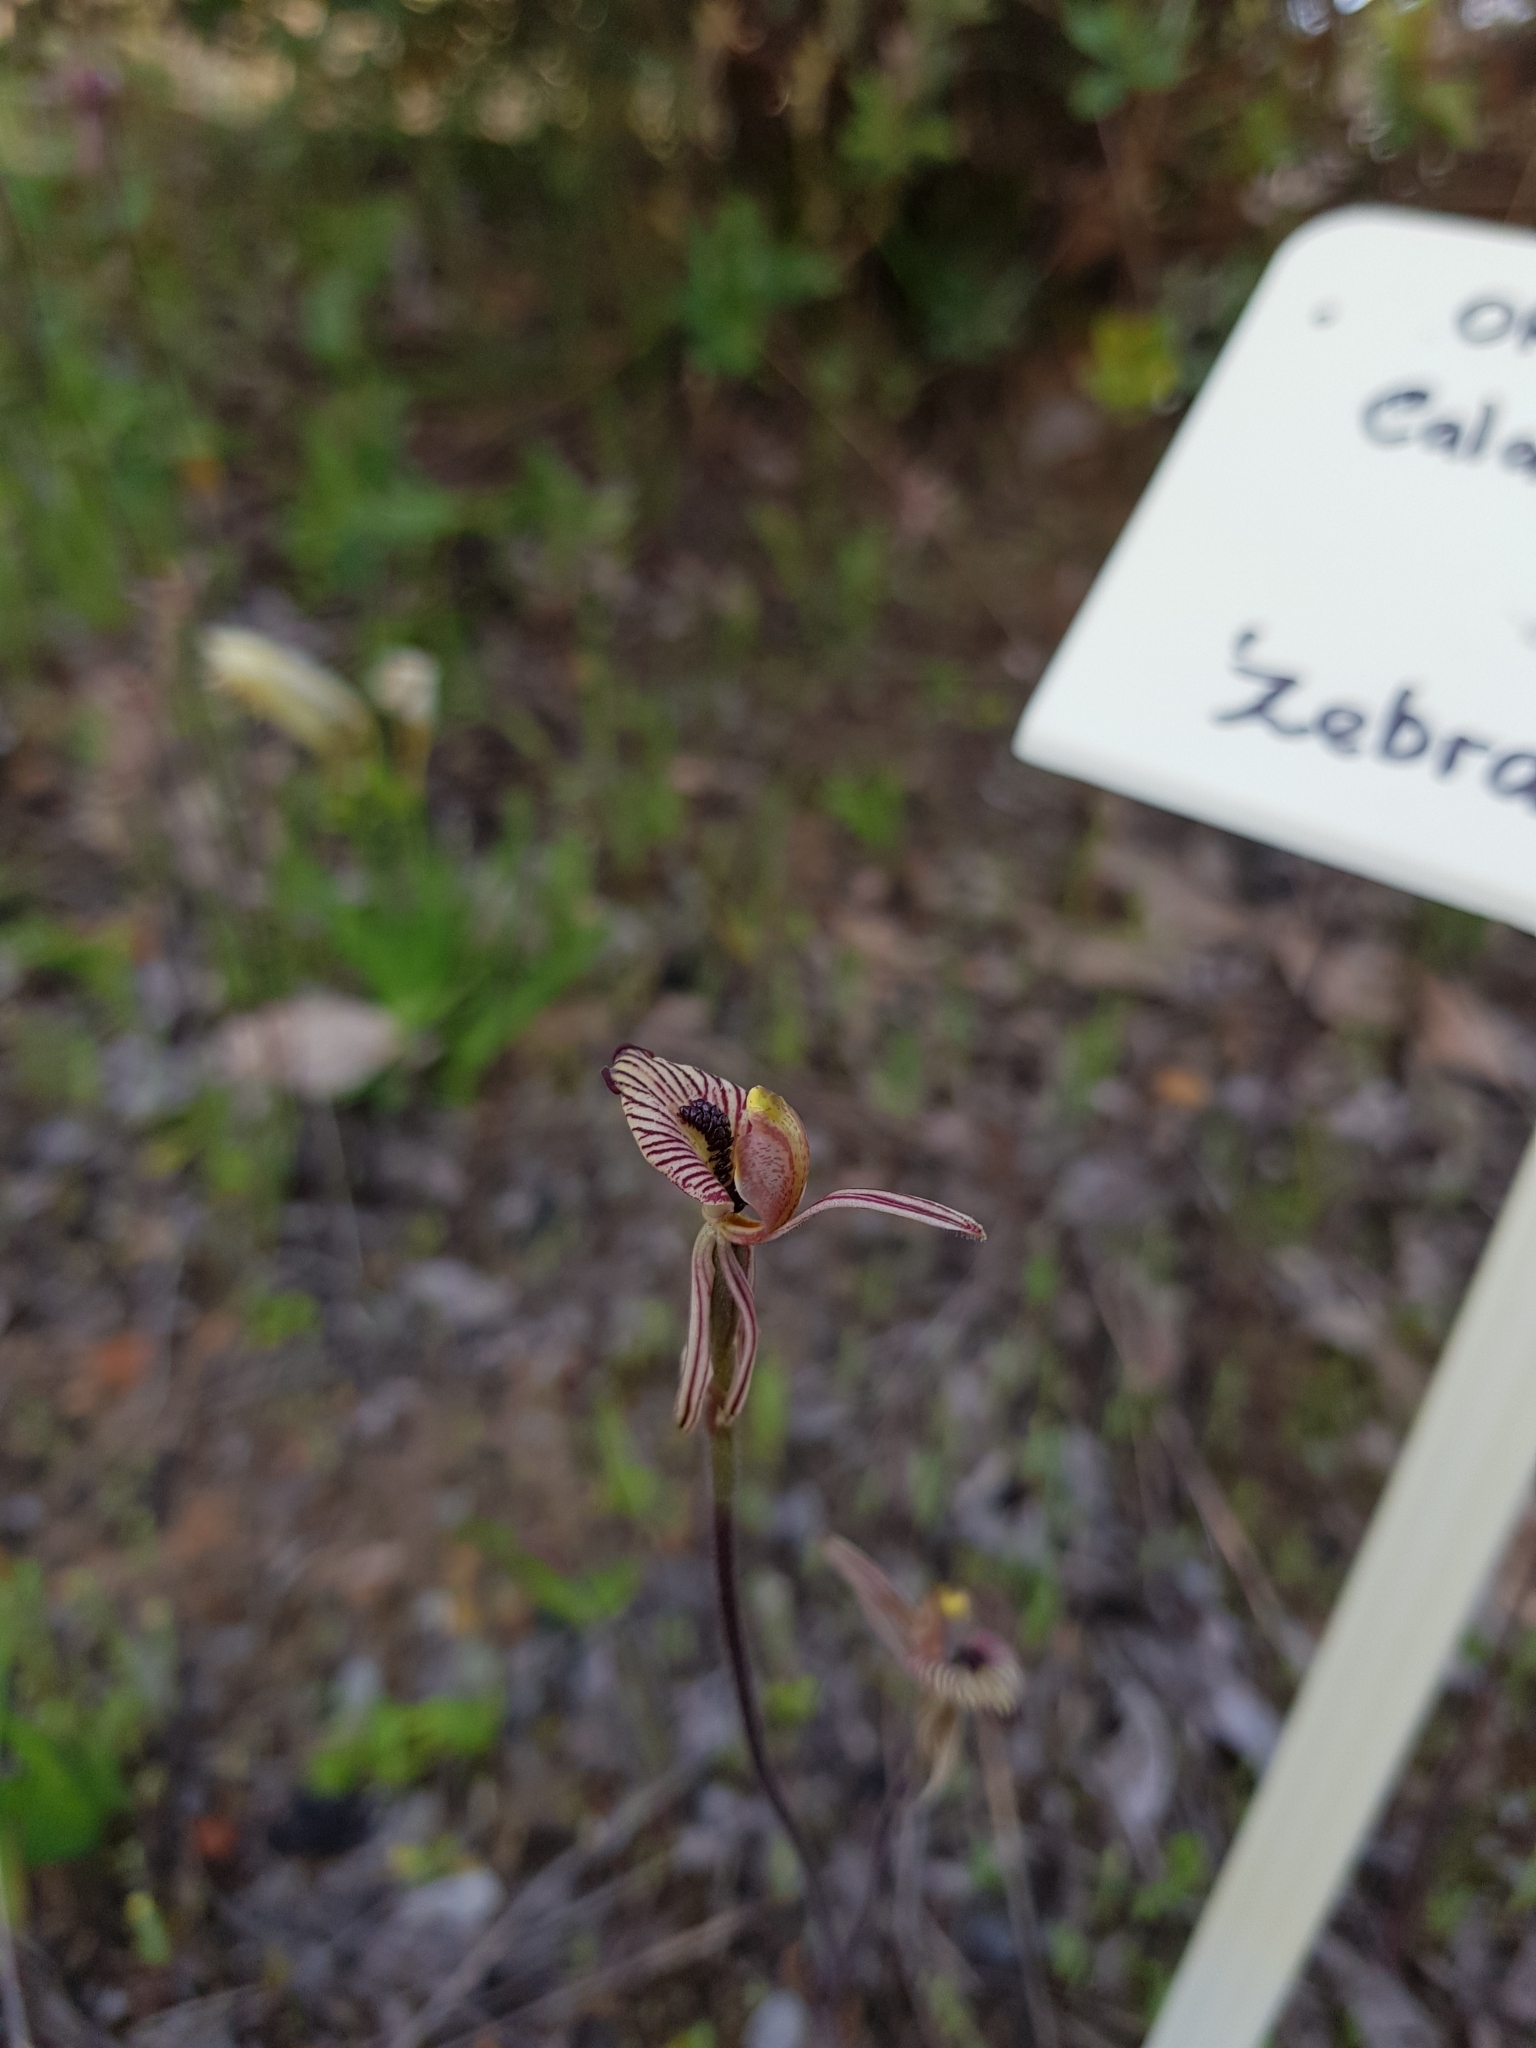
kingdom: Plantae
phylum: Tracheophyta
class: Liliopsida
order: Asparagales
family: Orchidaceae
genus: Caladenia
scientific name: Caladenia cairnsiana
